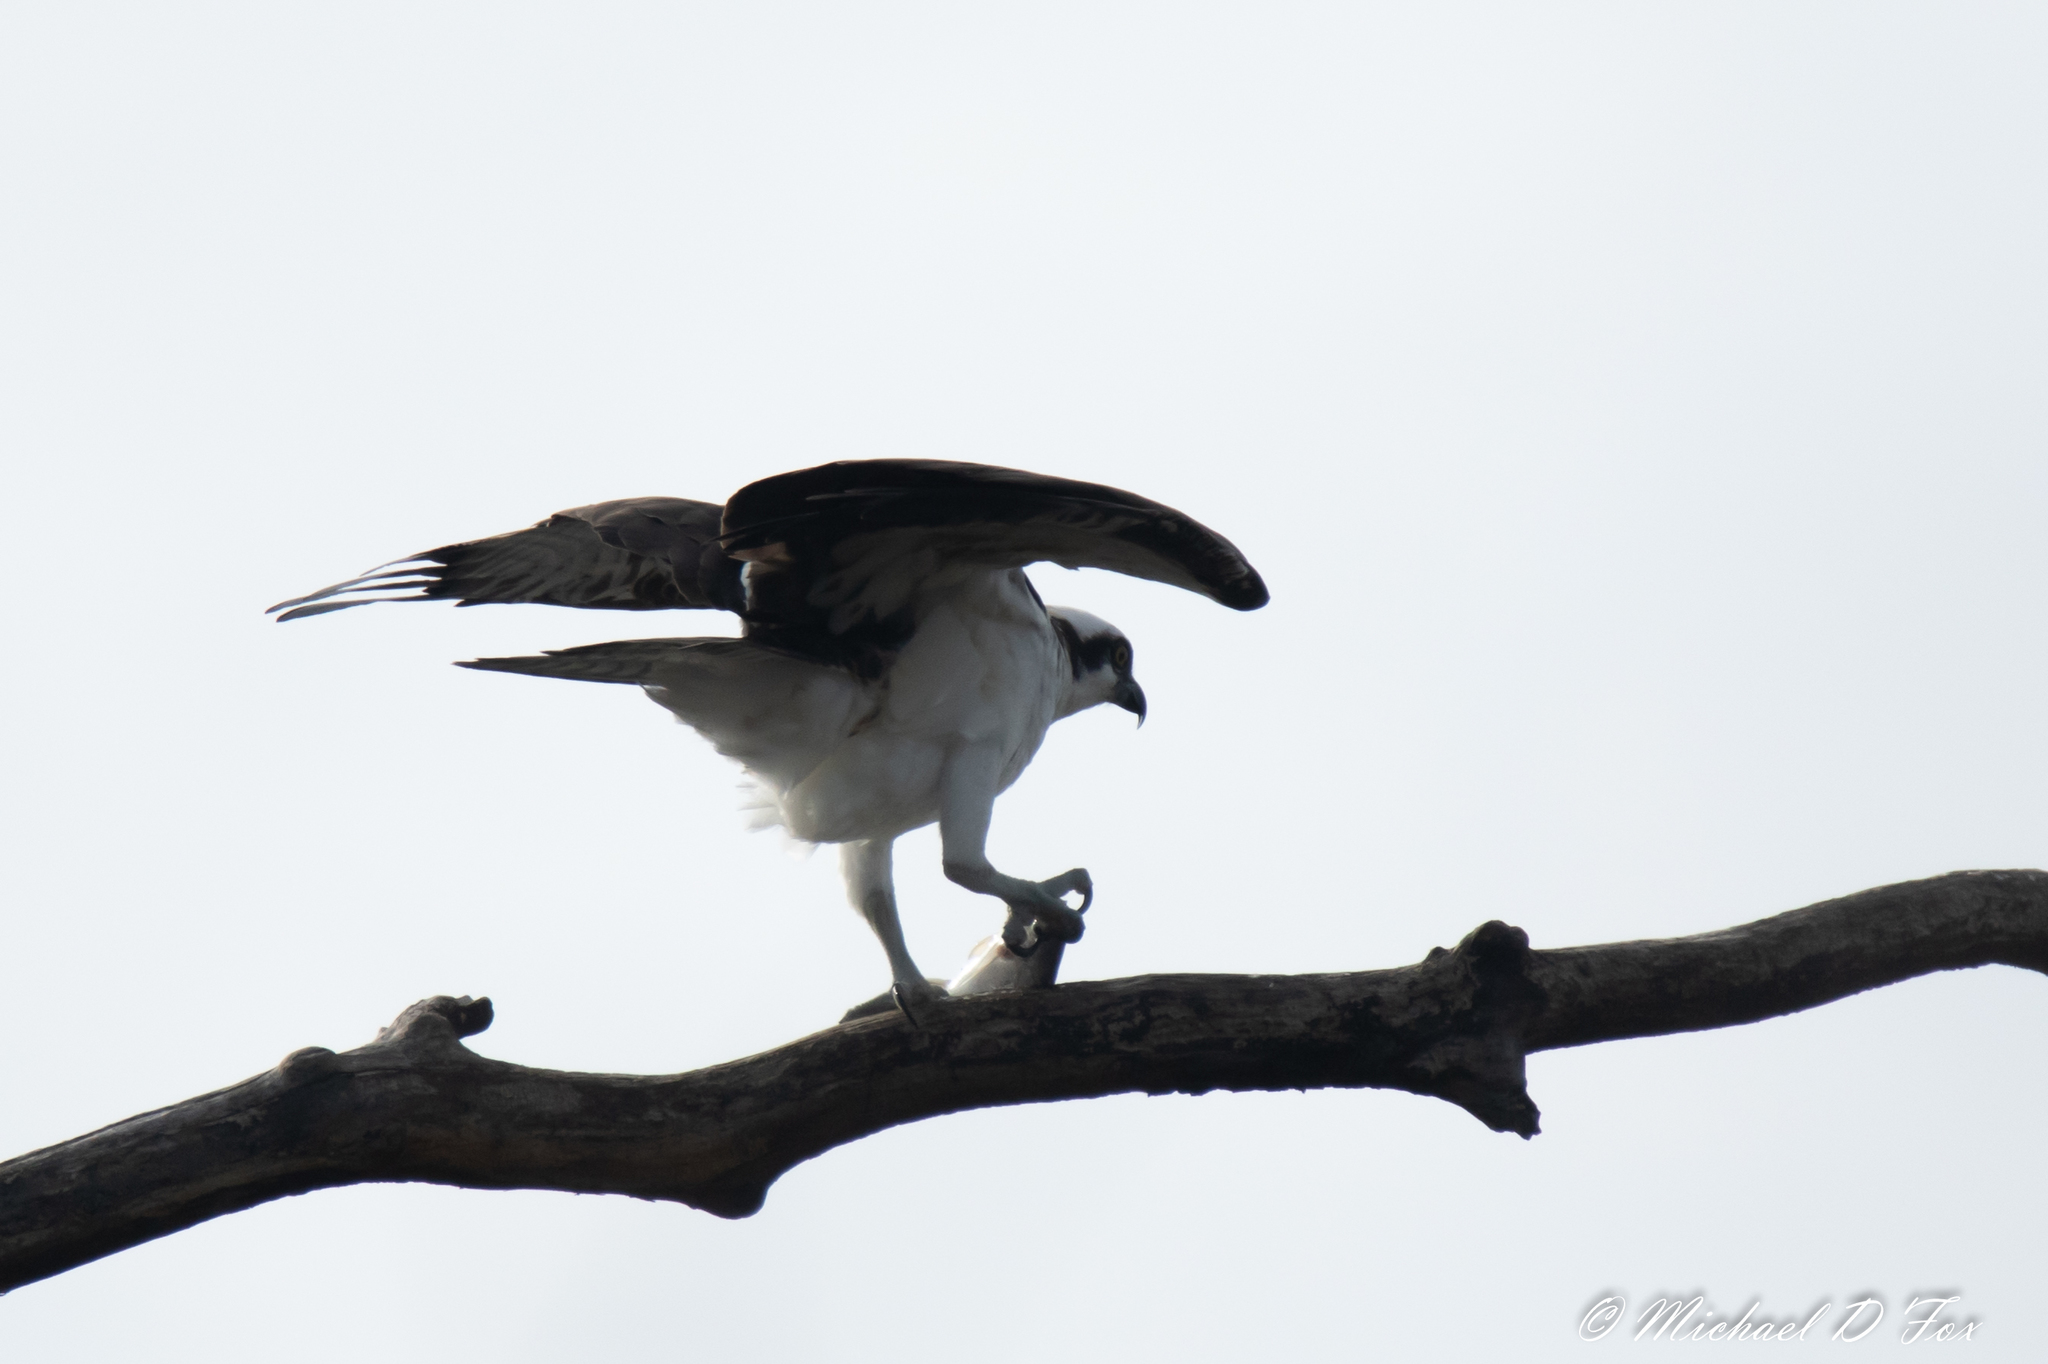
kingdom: Animalia
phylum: Chordata
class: Aves
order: Accipitriformes
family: Pandionidae
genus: Pandion
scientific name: Pandion haliaetus
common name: Osprey
